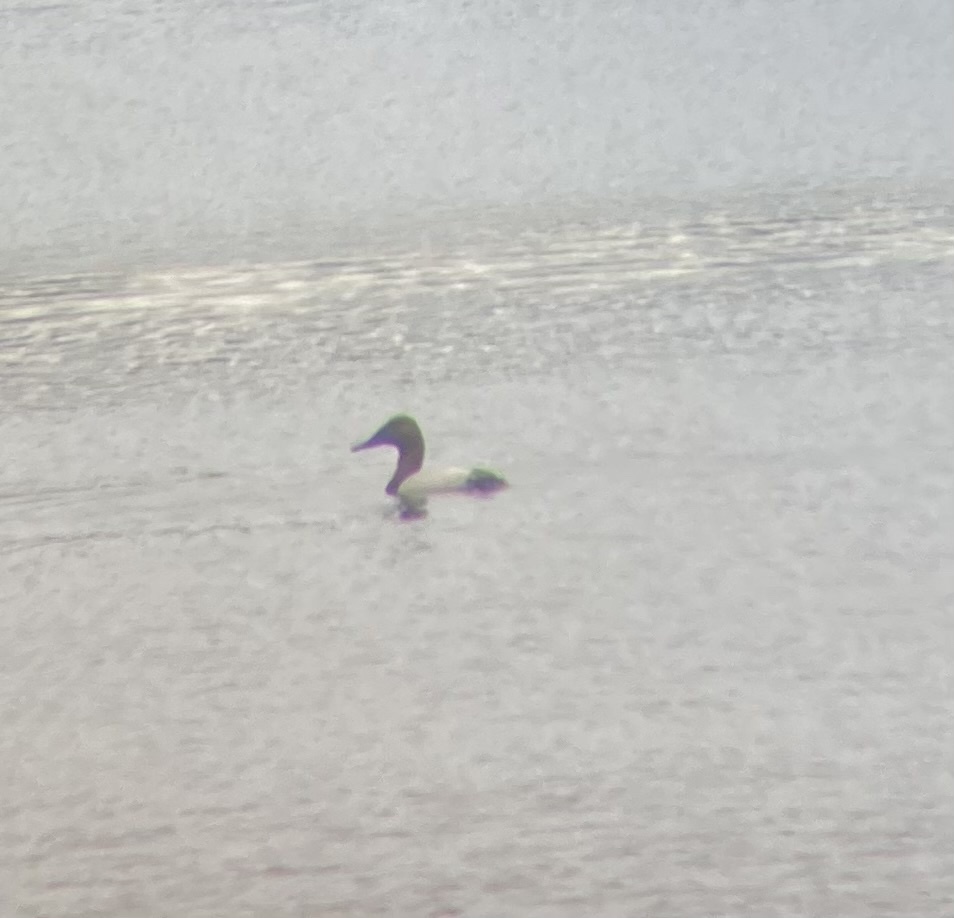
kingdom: Animalia
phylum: Chordata
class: Aves
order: Anseriformes
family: Anatidae
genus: Aythya
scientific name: Aythya valisineria
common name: Canvasback
